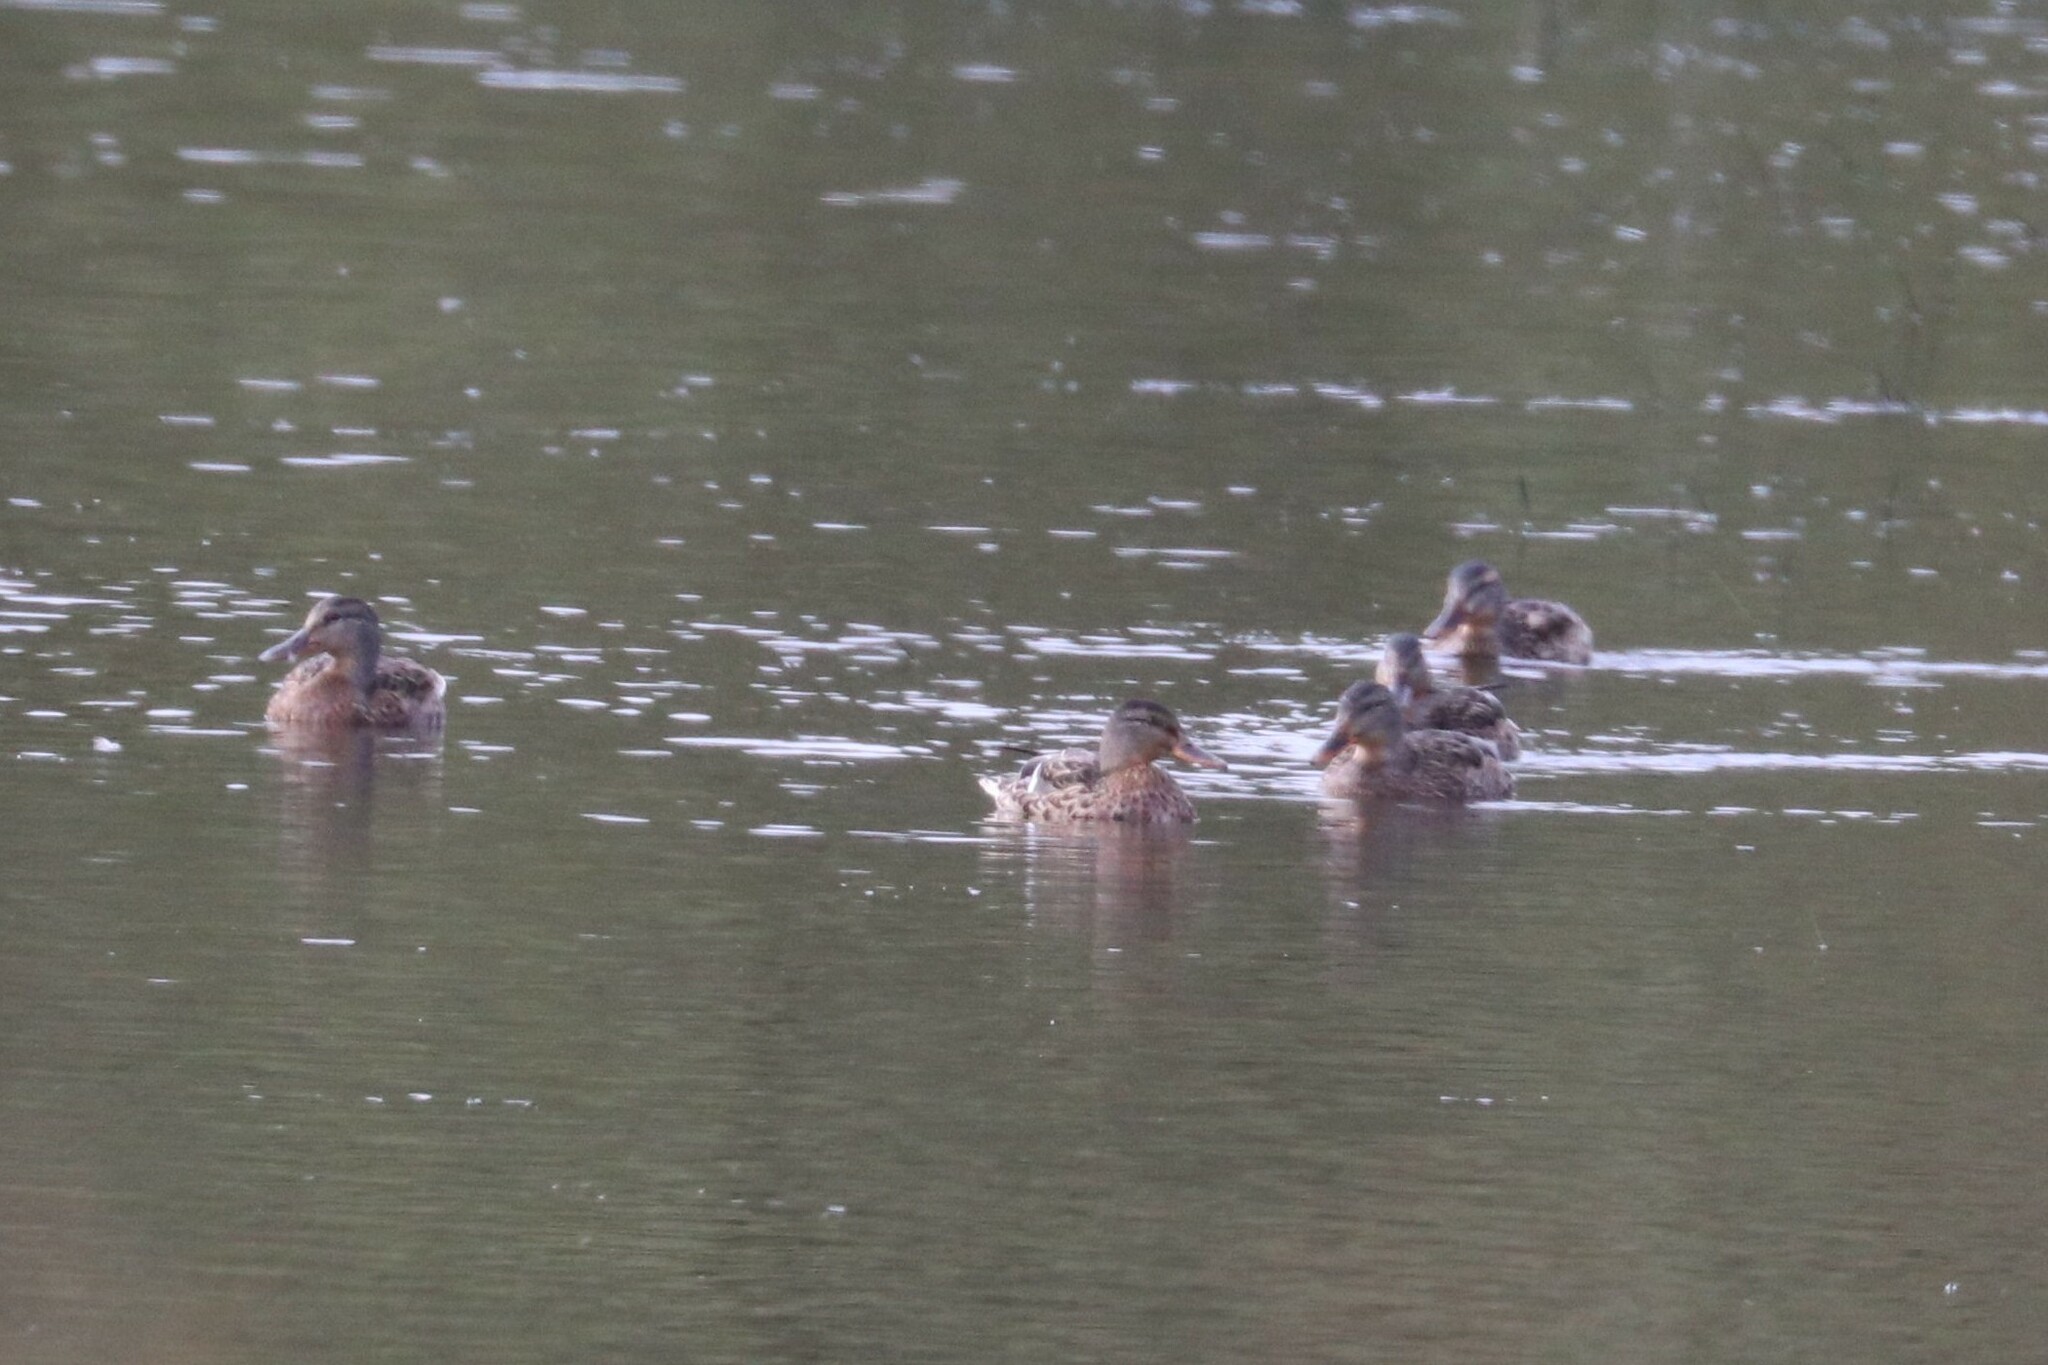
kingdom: Animalia
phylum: Chordata
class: Aves
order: Anseriformes
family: Anatidae
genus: Anas
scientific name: Anas platyrhynchos
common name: Mallard
